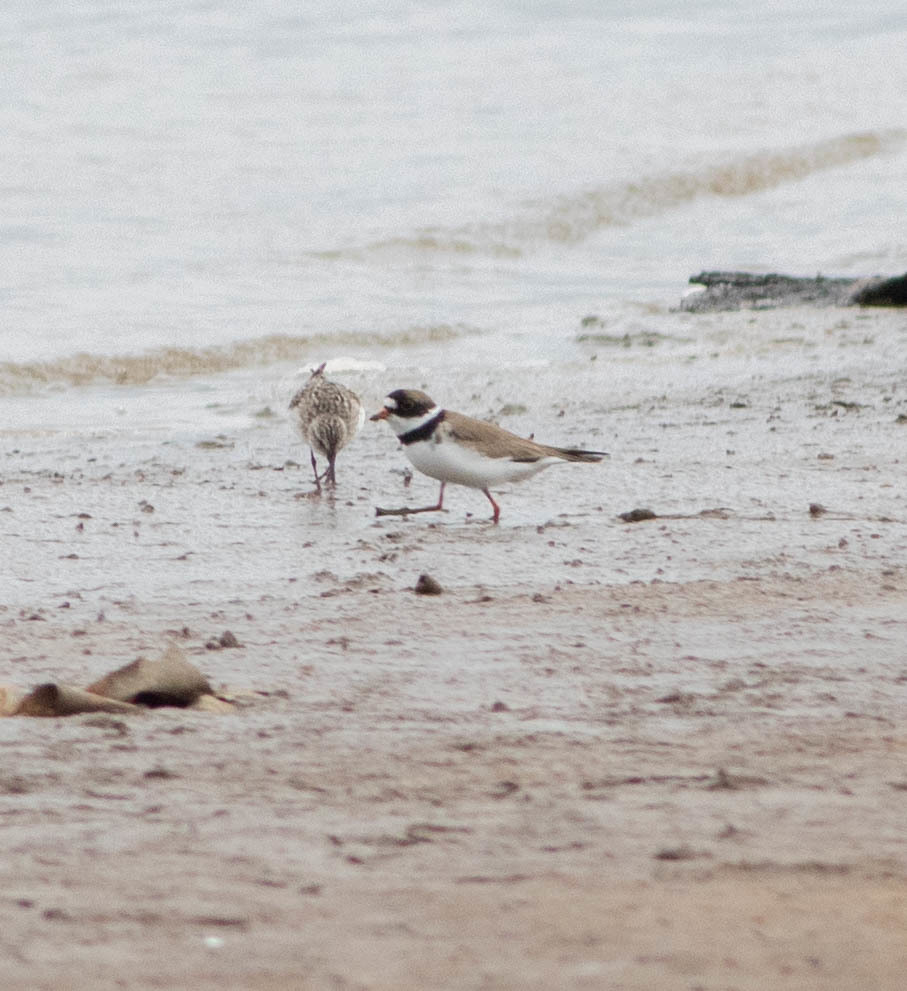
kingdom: Animalia
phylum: Chordata
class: Aves
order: Charadriiformes
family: Charadriidae
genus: Charadrius
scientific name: Charadrius semipalmatus
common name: Semipalmated plover
